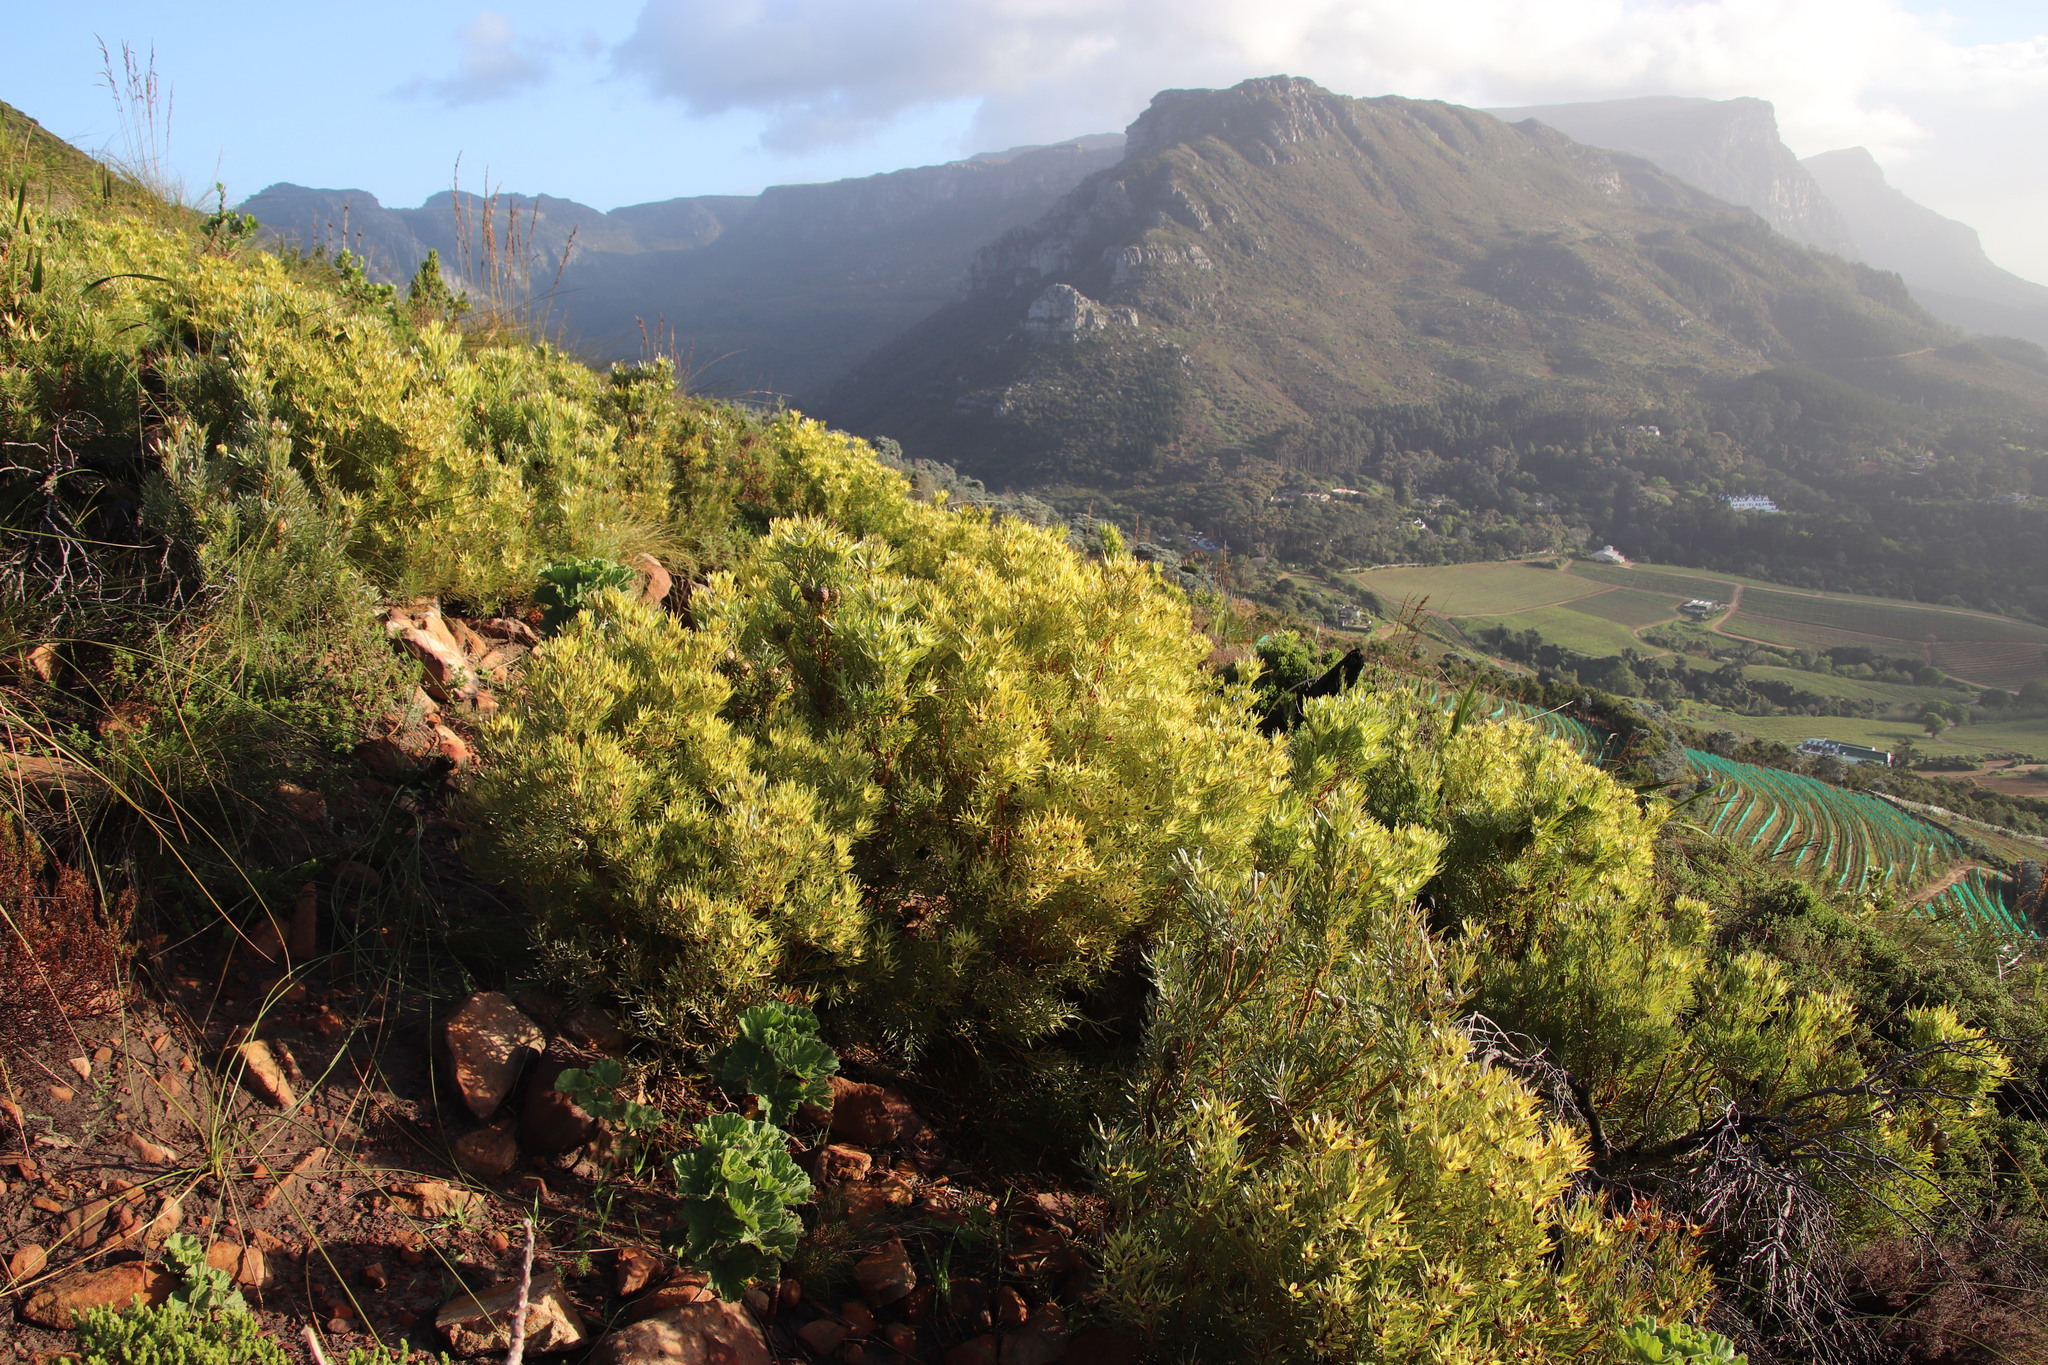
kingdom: Plantae
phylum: Tracheophyta
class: Magnoliopsida
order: Proteales
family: Proteaceae
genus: Leucadendron
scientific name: Leucadendron xanthoconus
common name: Sickle-leaf conebush
